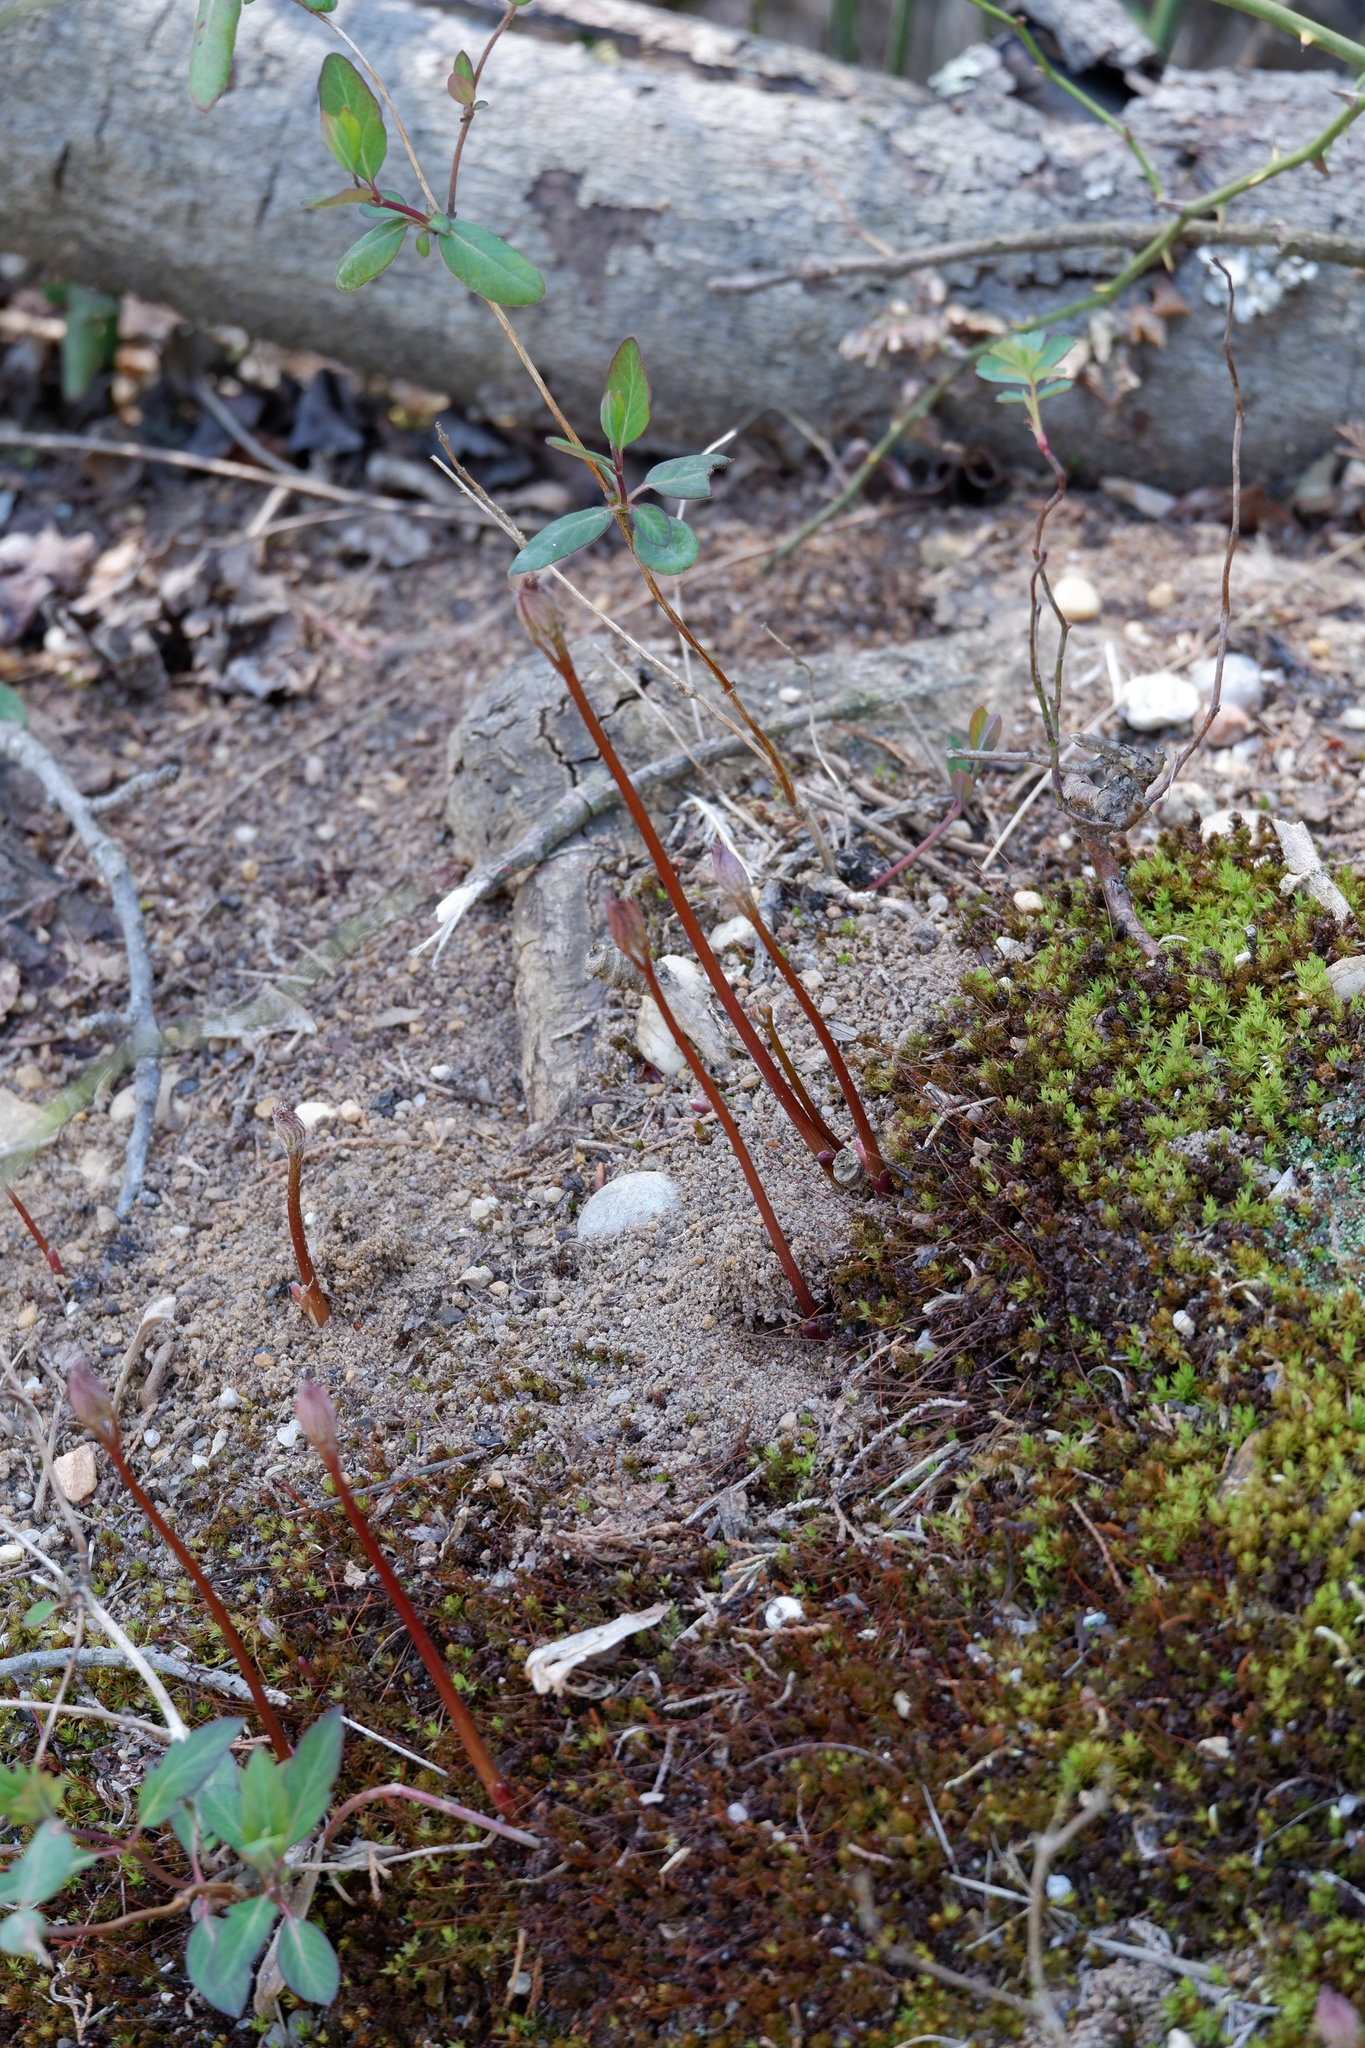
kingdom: Plantae
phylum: Tracheophyta
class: Magnoliopsida
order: Apiales
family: Araliaceae
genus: Aralia
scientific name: Aralia nudicaulis
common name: Wild sarsaparilla
